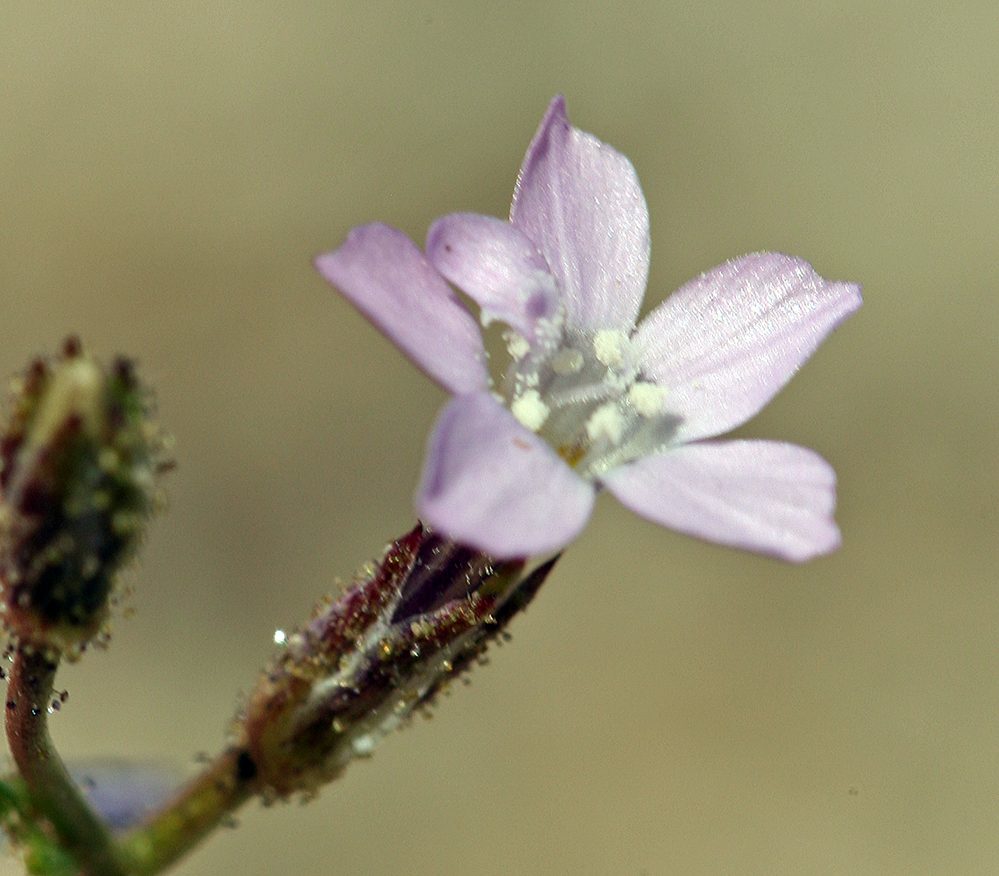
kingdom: Plantae
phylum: Tracheophyta
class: Magnoliopsida
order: Ericales
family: Polemoniaceae
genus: Gilia
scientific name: Gilia sinuata
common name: Rosy gilia
